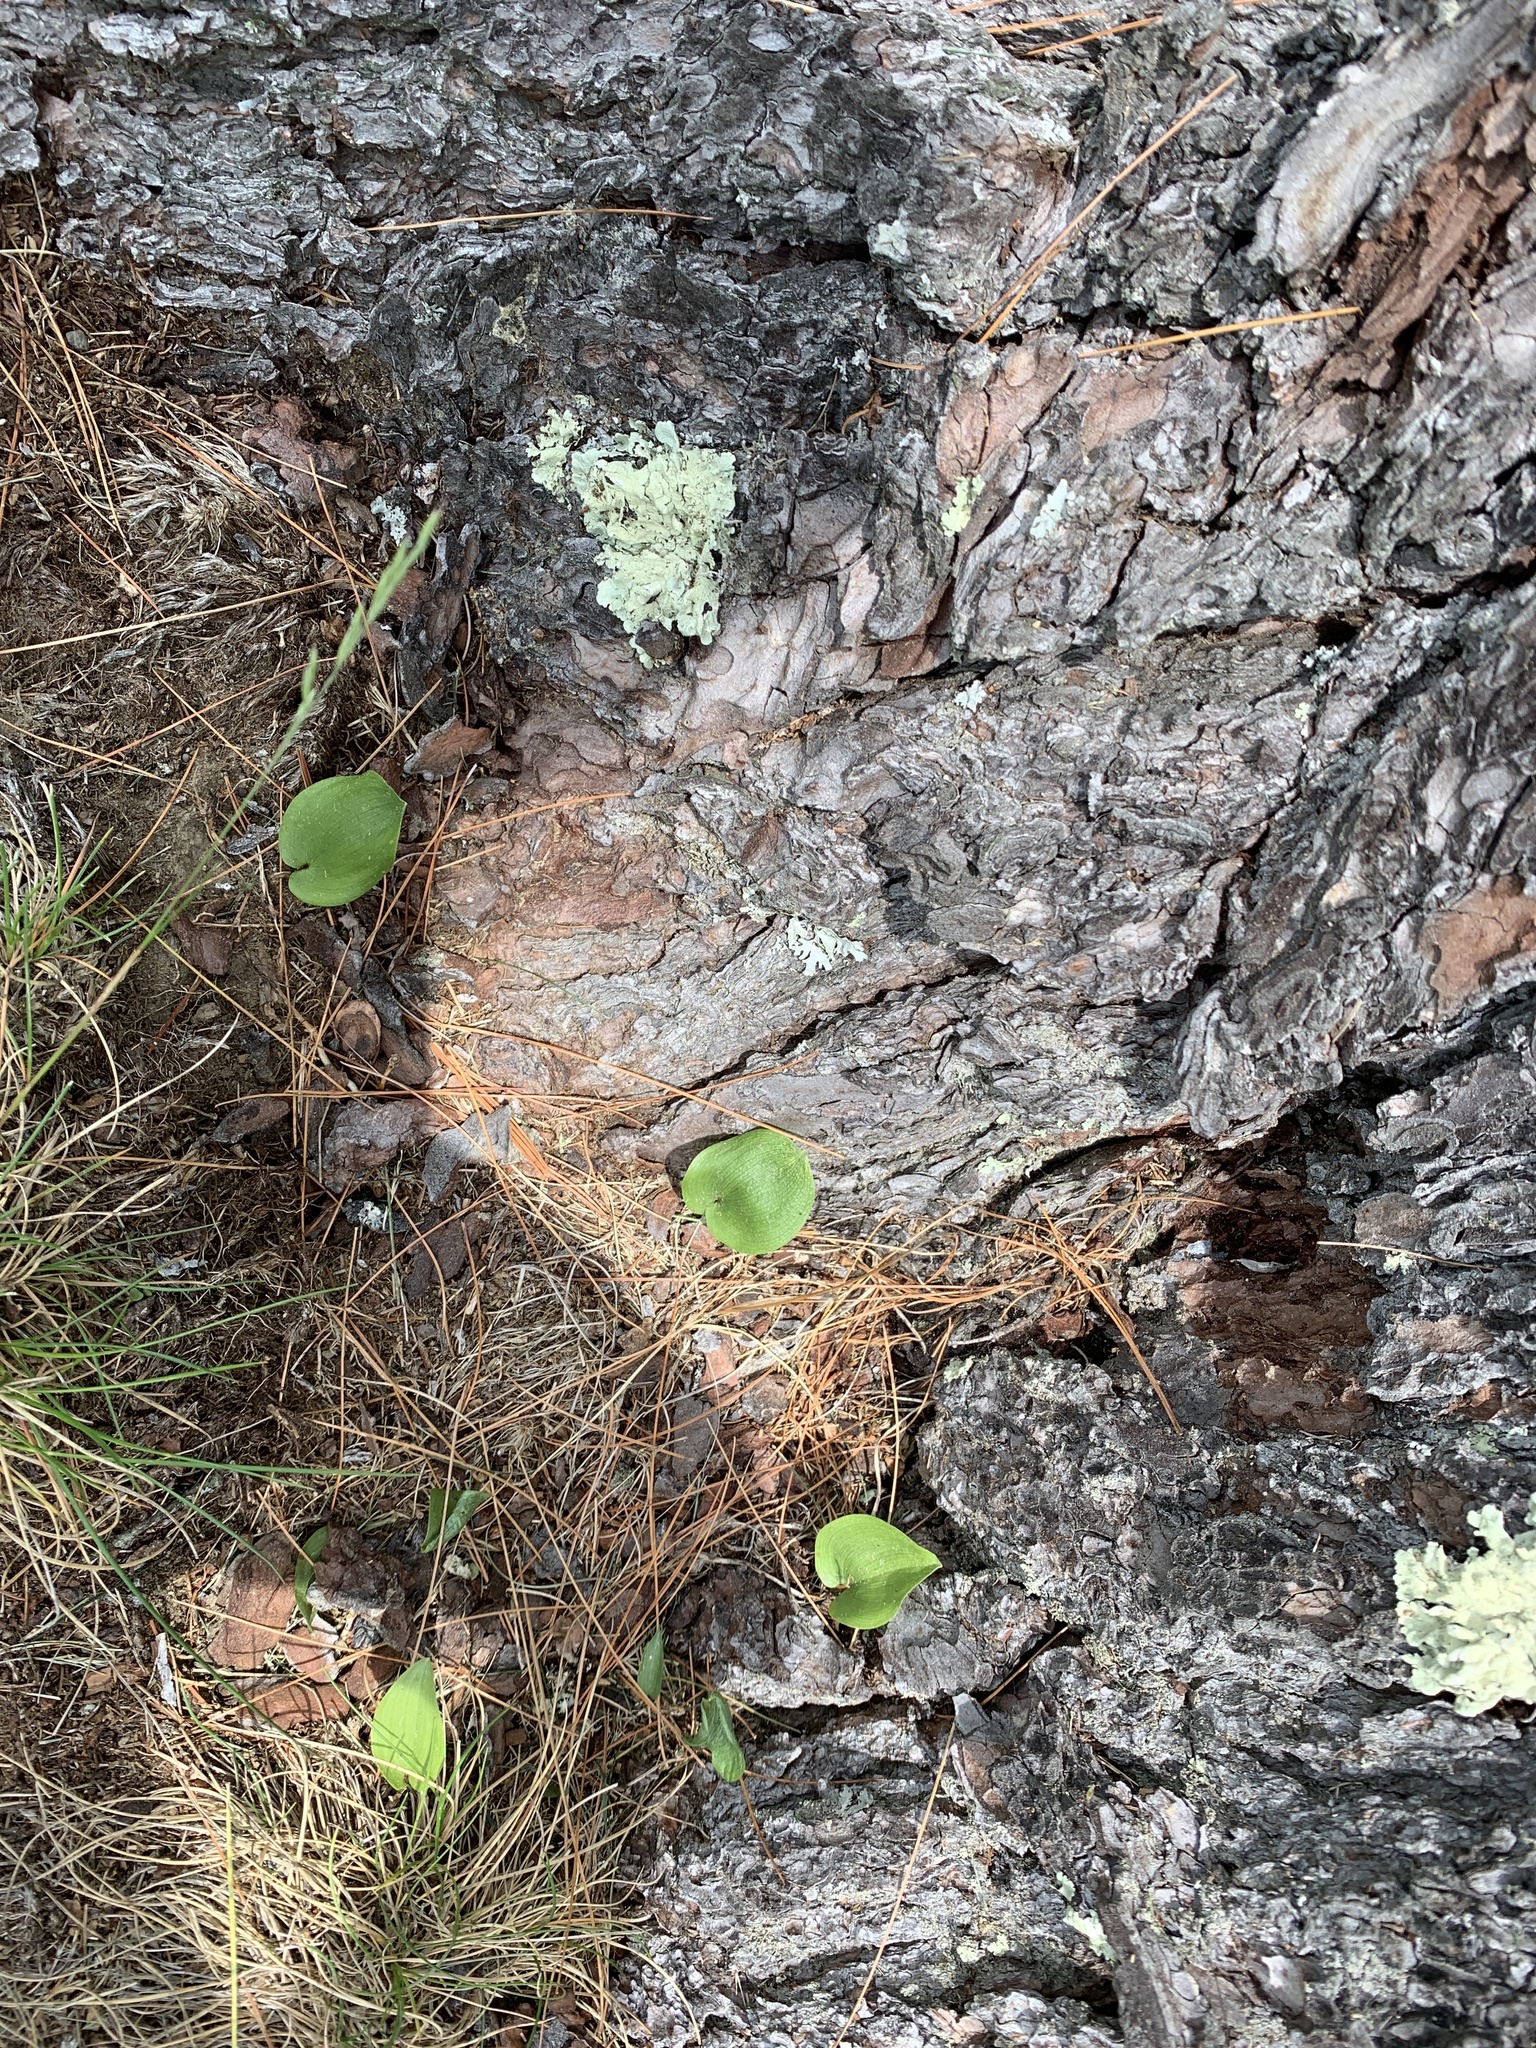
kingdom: Plantae
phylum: Tracheophyta
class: Liliopsida
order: Asparagales
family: Asparagaceae
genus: Maianthemum
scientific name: Maianthemum canadense
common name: False lily-of-the-valley
